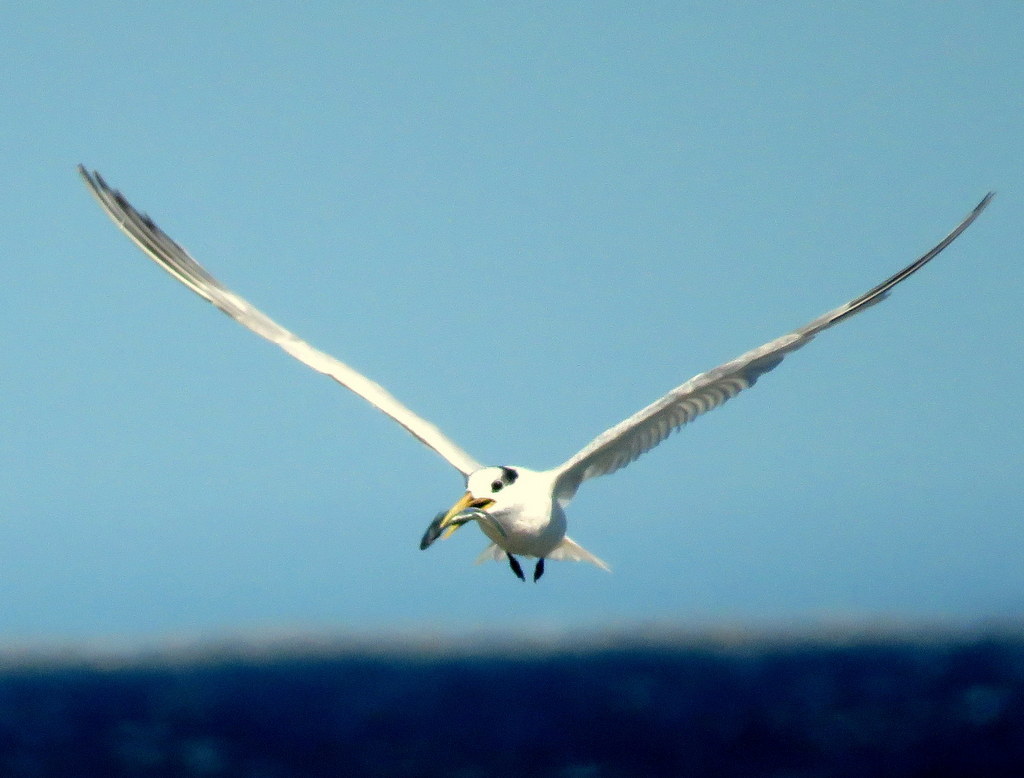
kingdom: Animalia
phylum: Chordata
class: Aves
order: Charadriiformes
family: Laridae
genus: Thalasseus
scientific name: Thalasseus sandvicensis
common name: Sandwich tern
